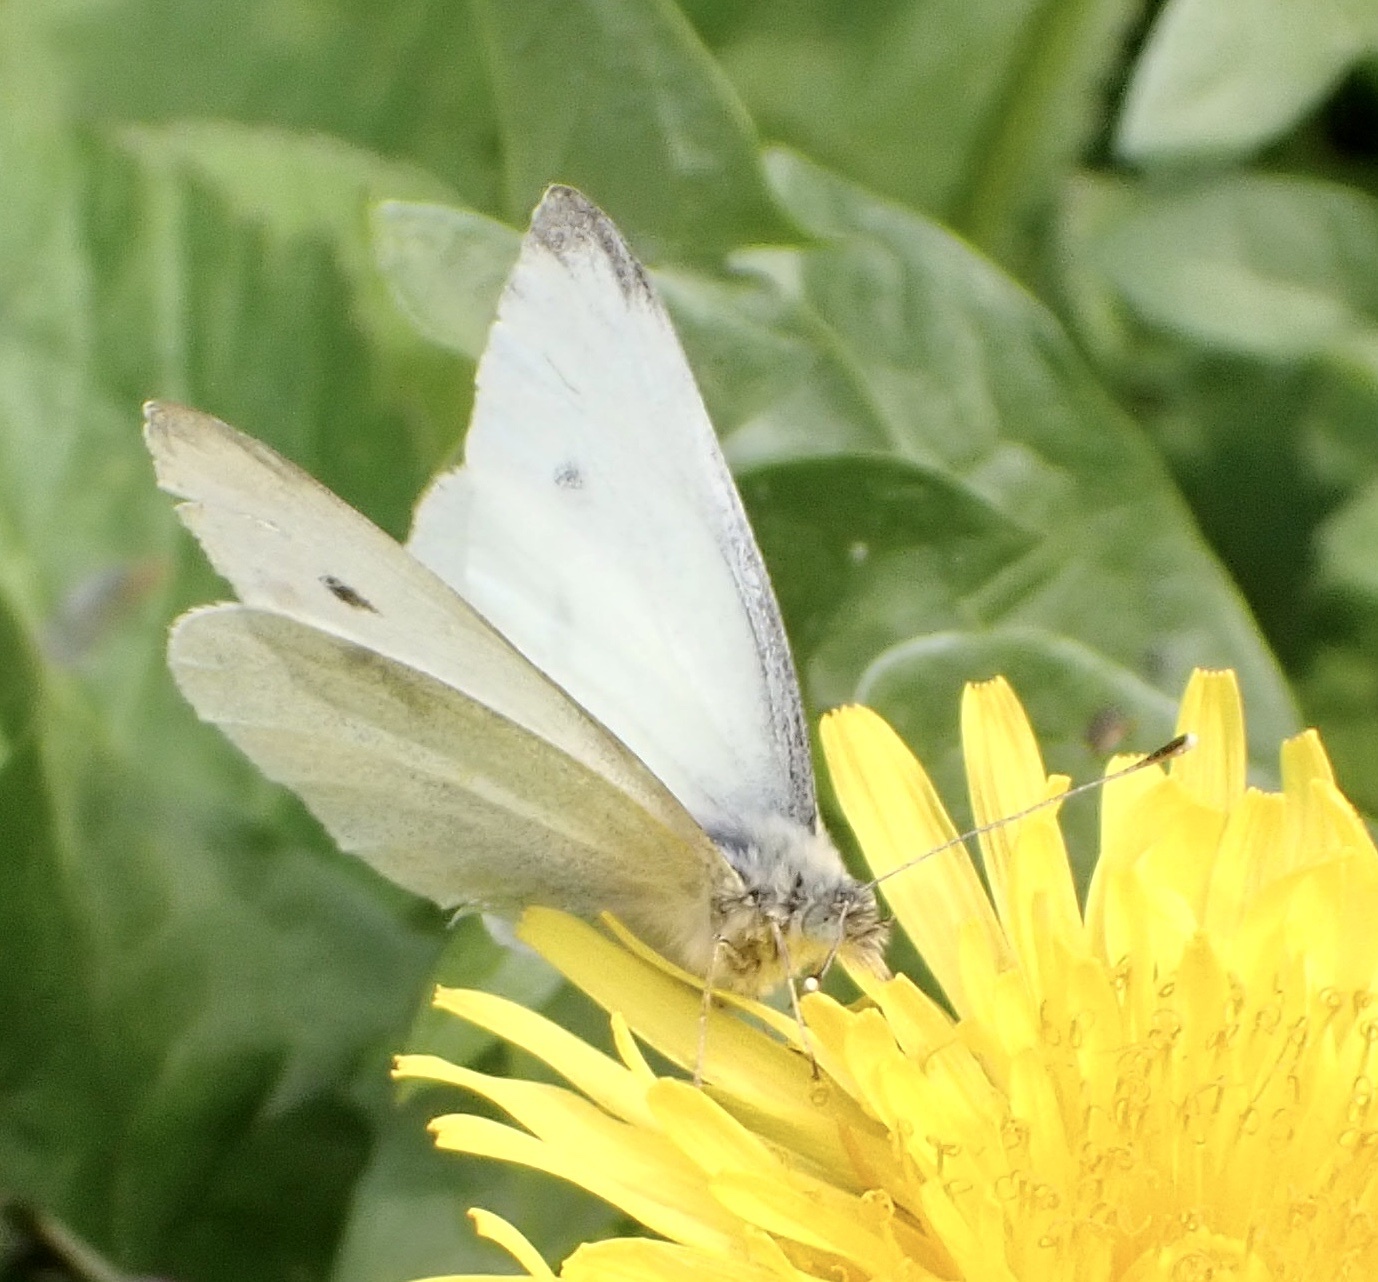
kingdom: Animalia
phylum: Arthropoda
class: Insecta
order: Lepidoptera
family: Pieridae
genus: Pieris
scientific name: Pieris rapae
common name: Small white
